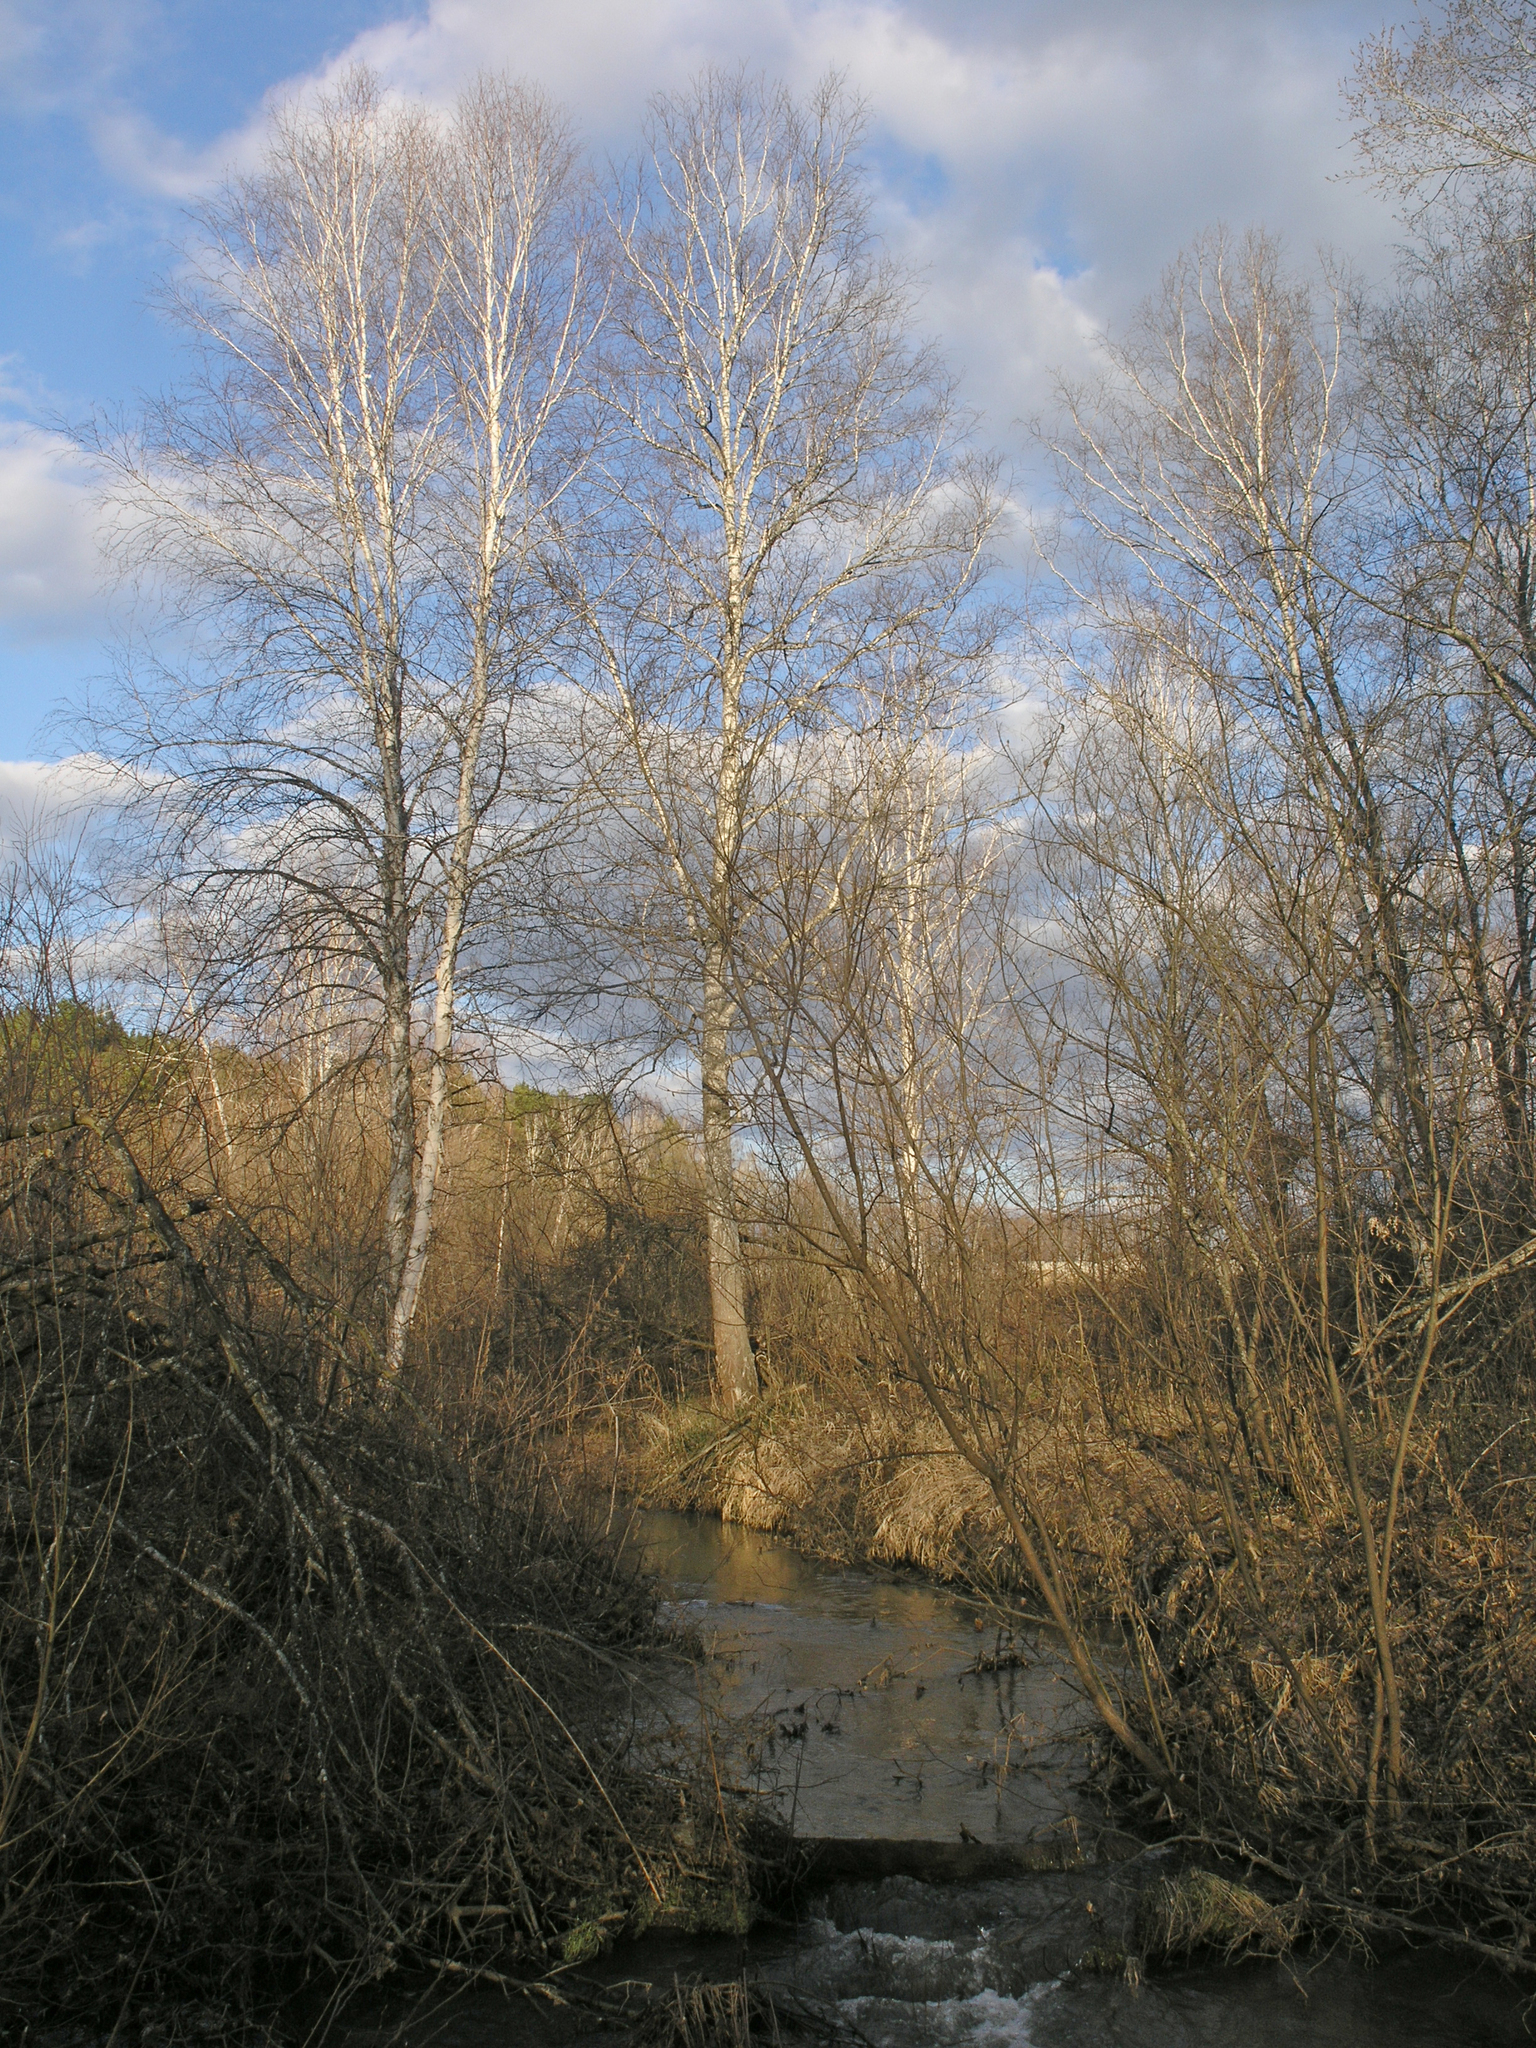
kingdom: Plantae
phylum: Tracheophyta
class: Magnoliopsida
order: Fagales
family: Betulaceae
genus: Betula
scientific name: Betula pendula
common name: Silver birch
